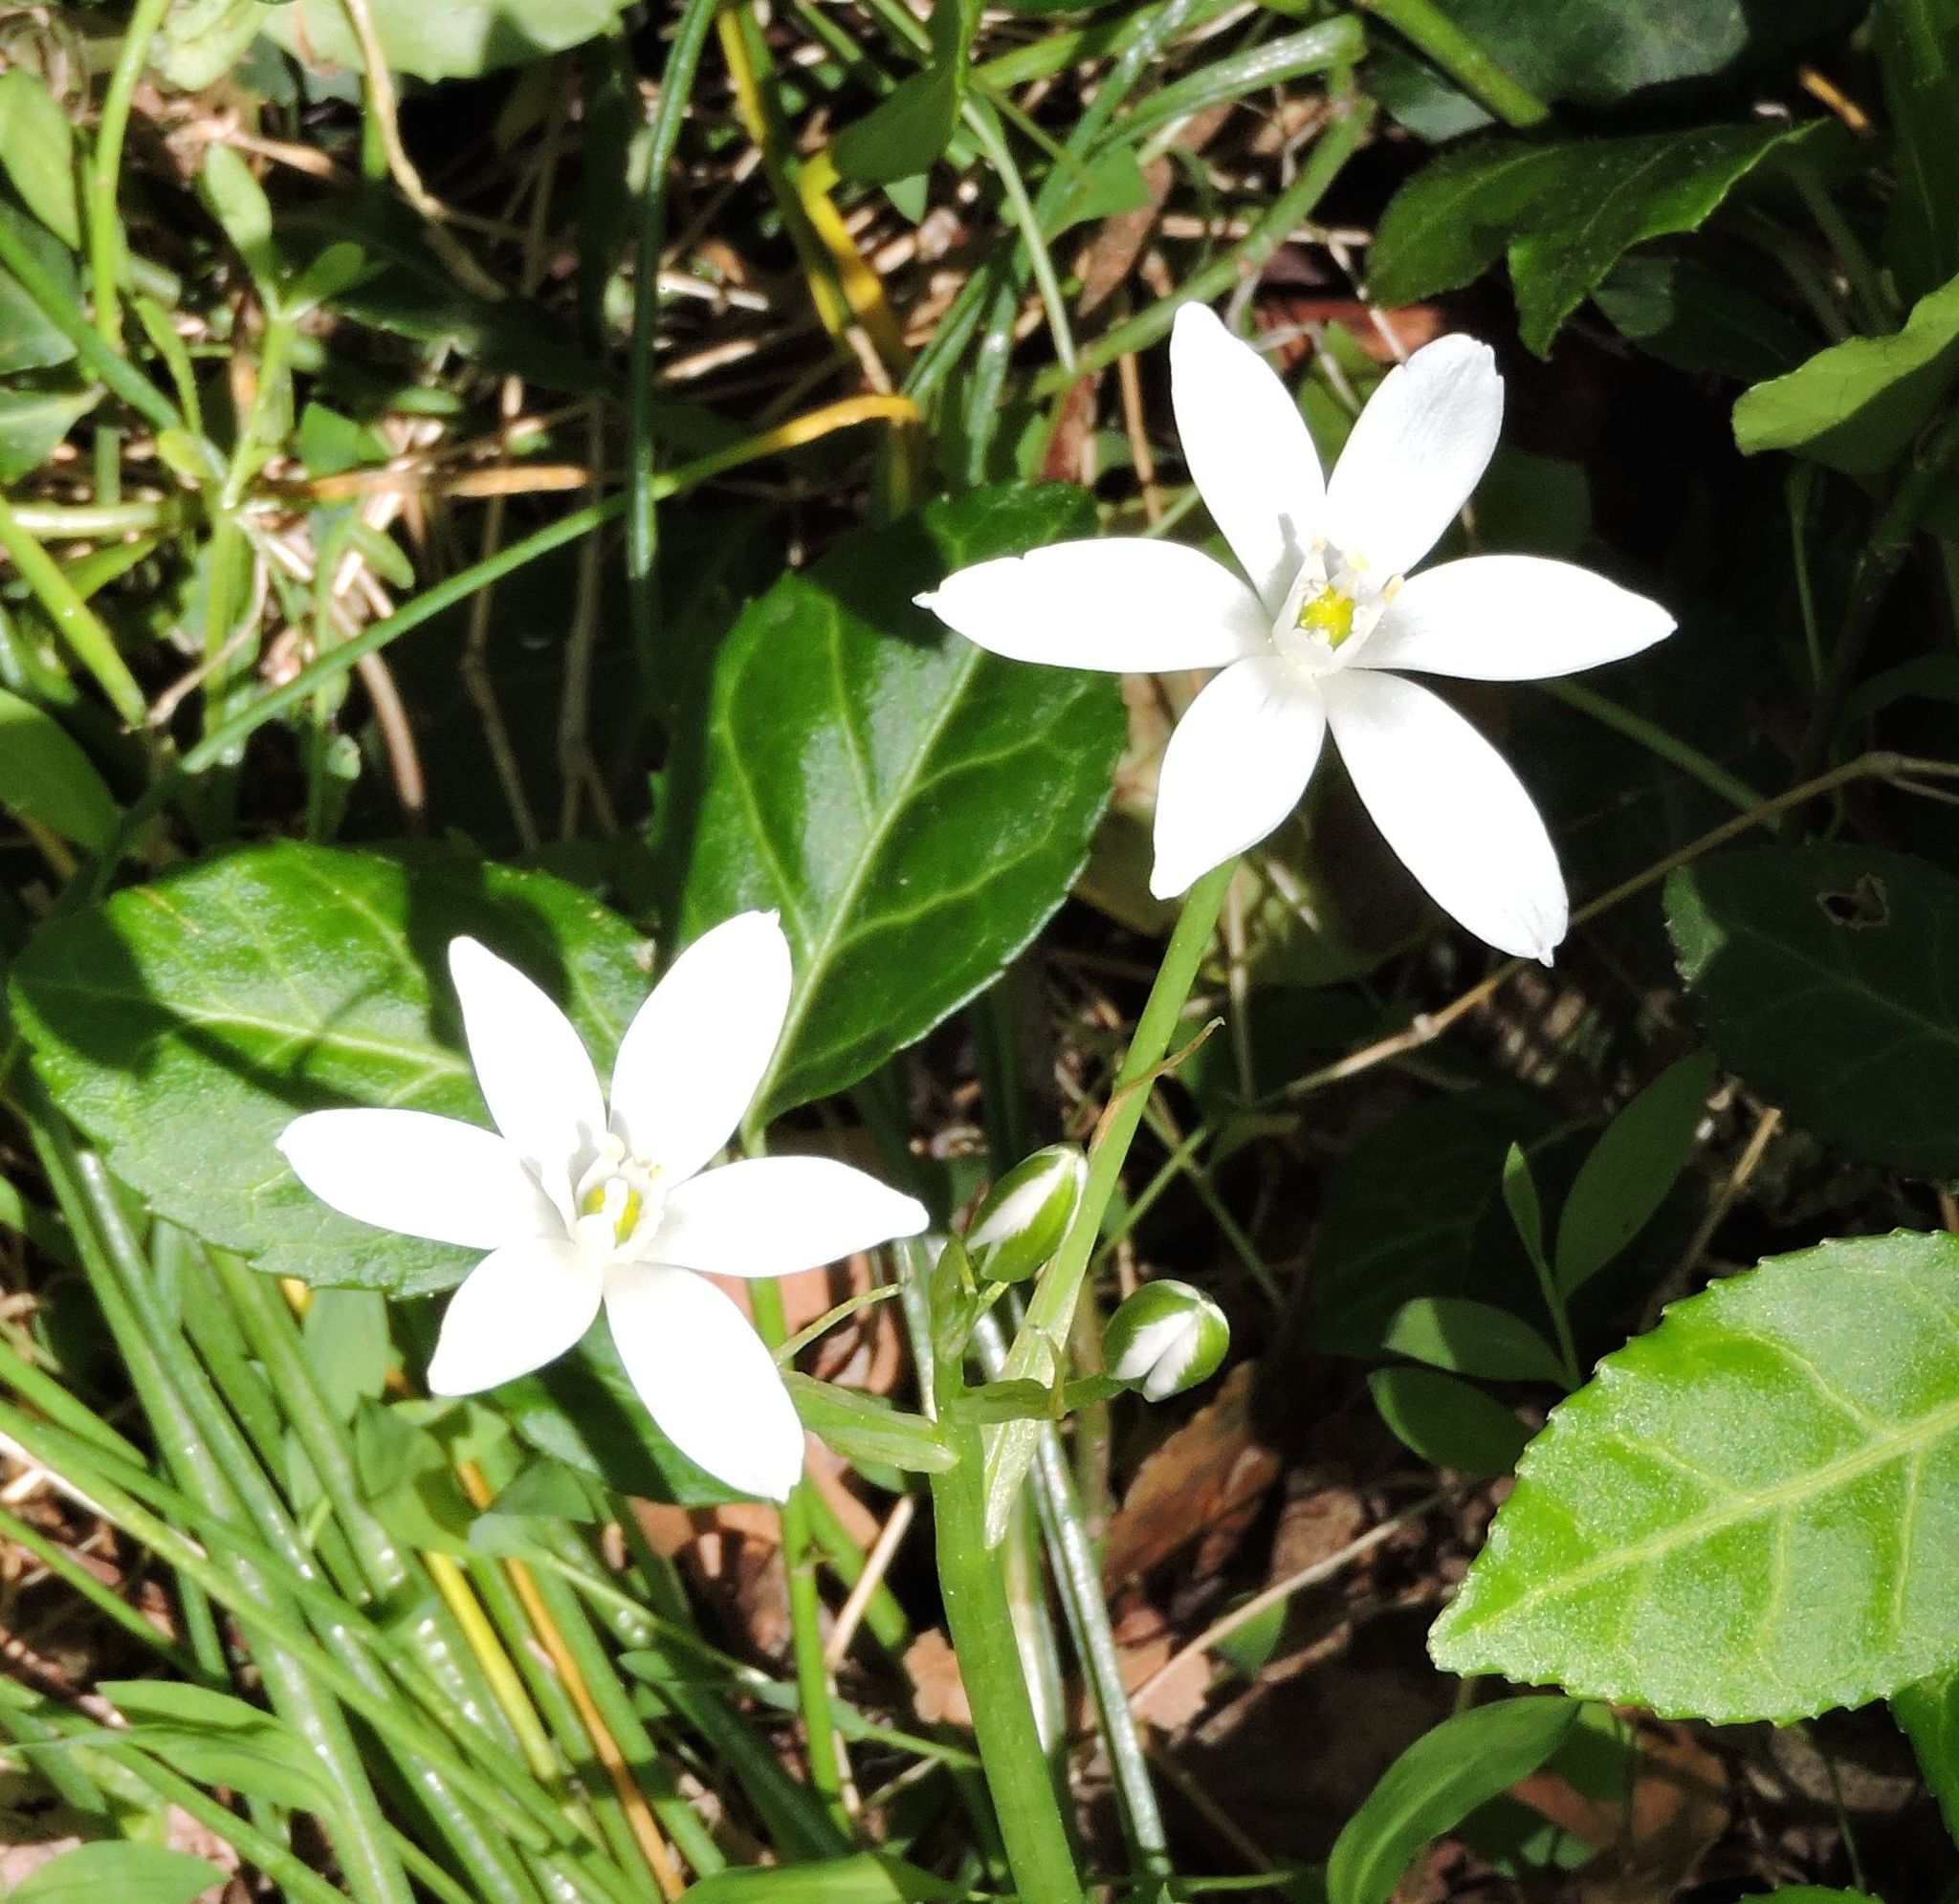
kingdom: Plantae
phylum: Tracheophyta
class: Liliopsida
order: Asparagales
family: Asparagaceae
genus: Ornithogalum
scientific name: Ornithogalum umbellatum
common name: Garden star-of-bethlehem
